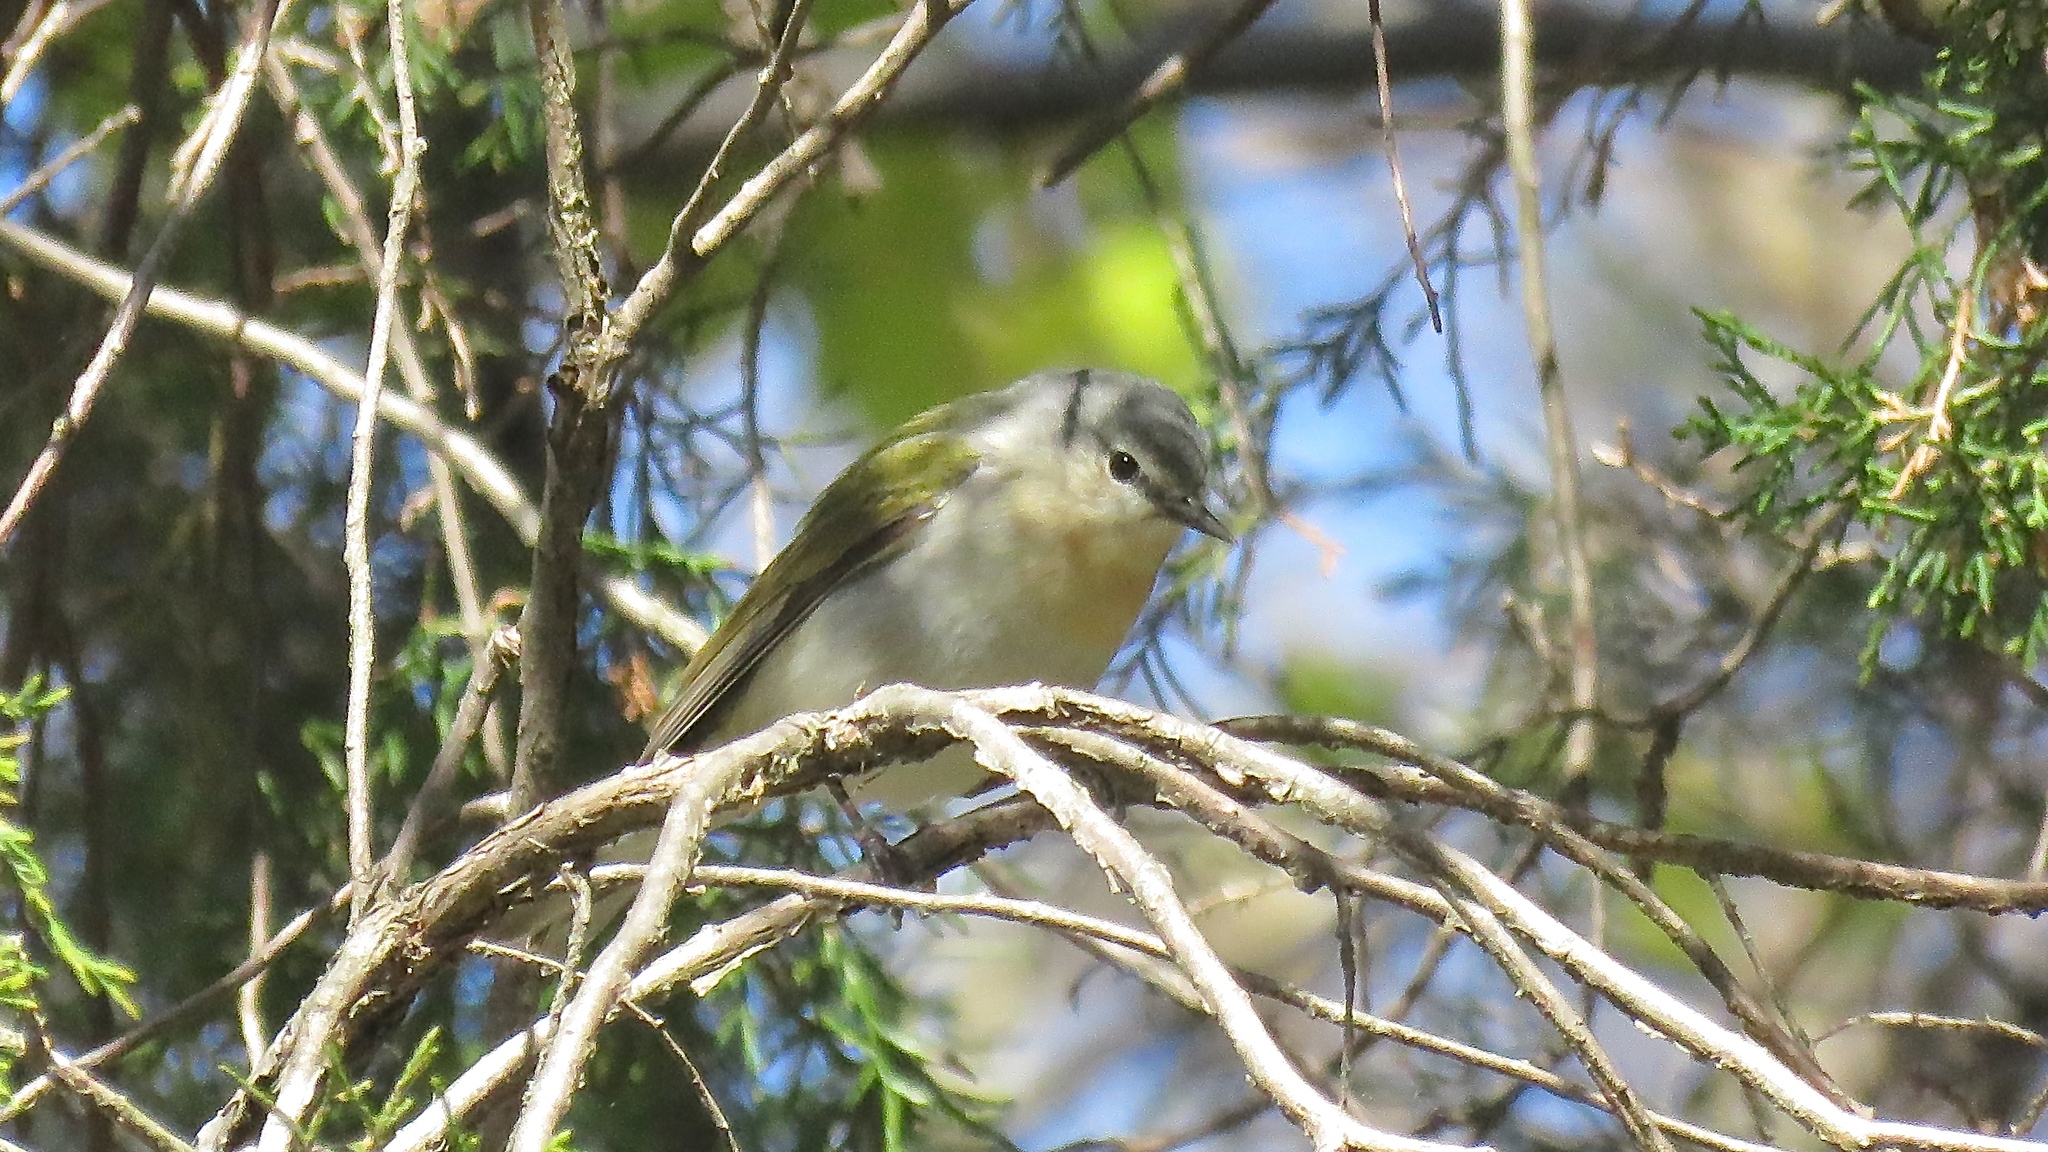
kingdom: Animalia
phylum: Chordata
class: Aves
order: Passeriformes
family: Parulidae
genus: Leiothlypis
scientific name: Leiothlypis peregrina
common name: Tennessee warbler
